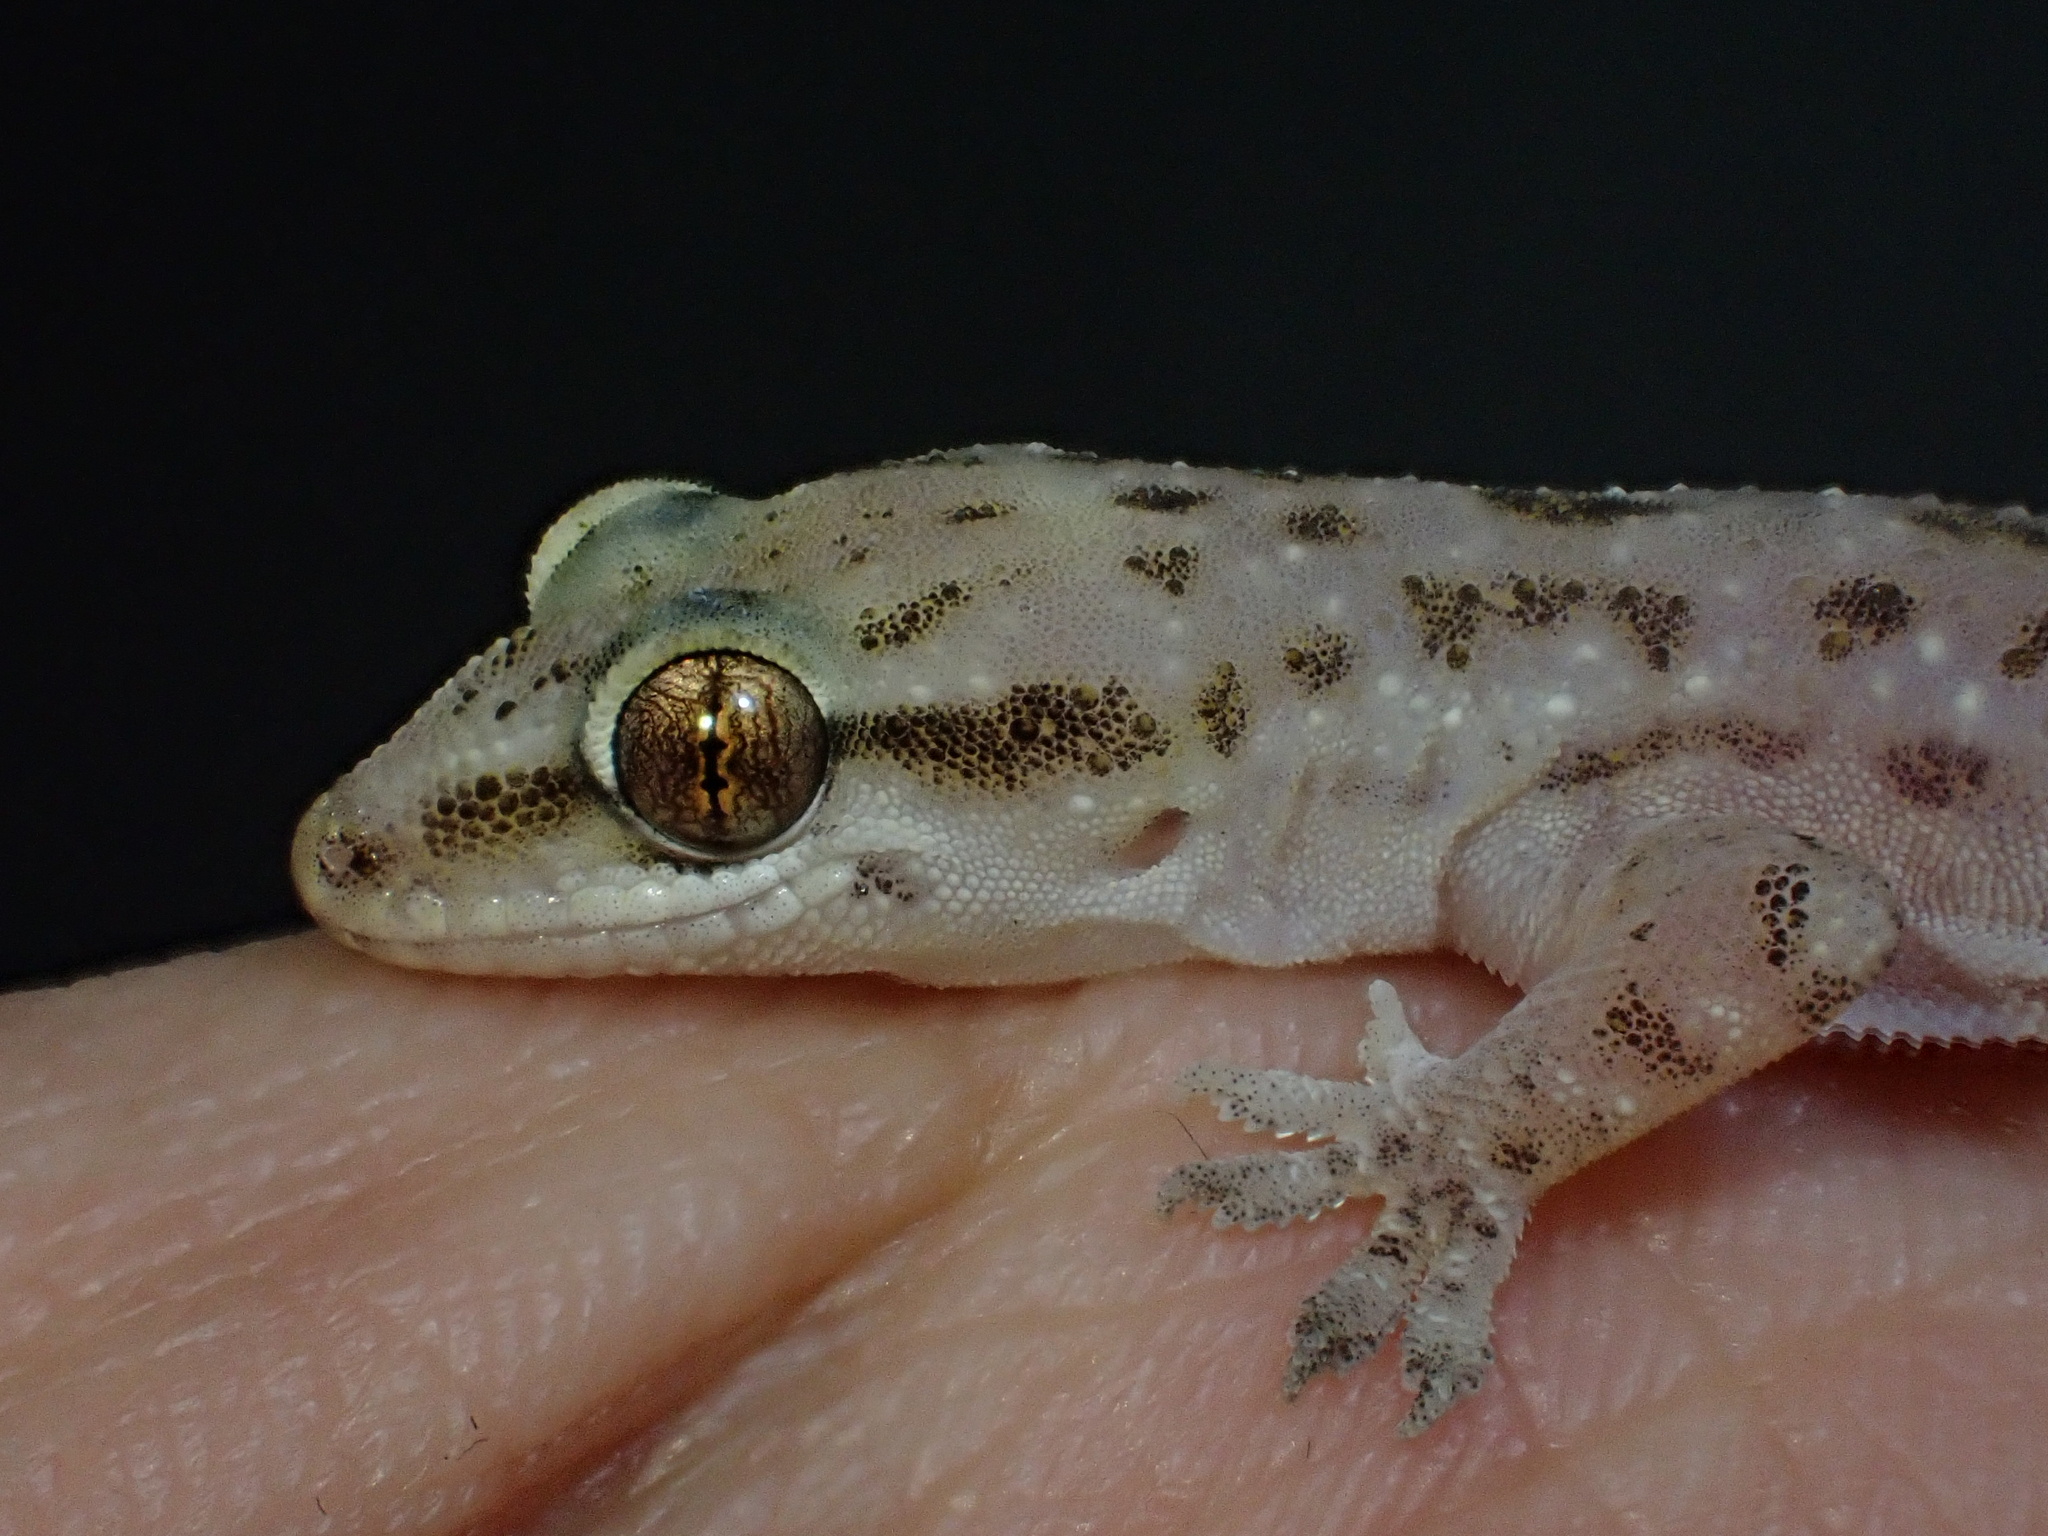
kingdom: Animalia
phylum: Chordata
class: Squamata
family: Gekkonidae
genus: Hemidactylus
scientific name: Hemidactylus robustus
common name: Heyden’s gecko
